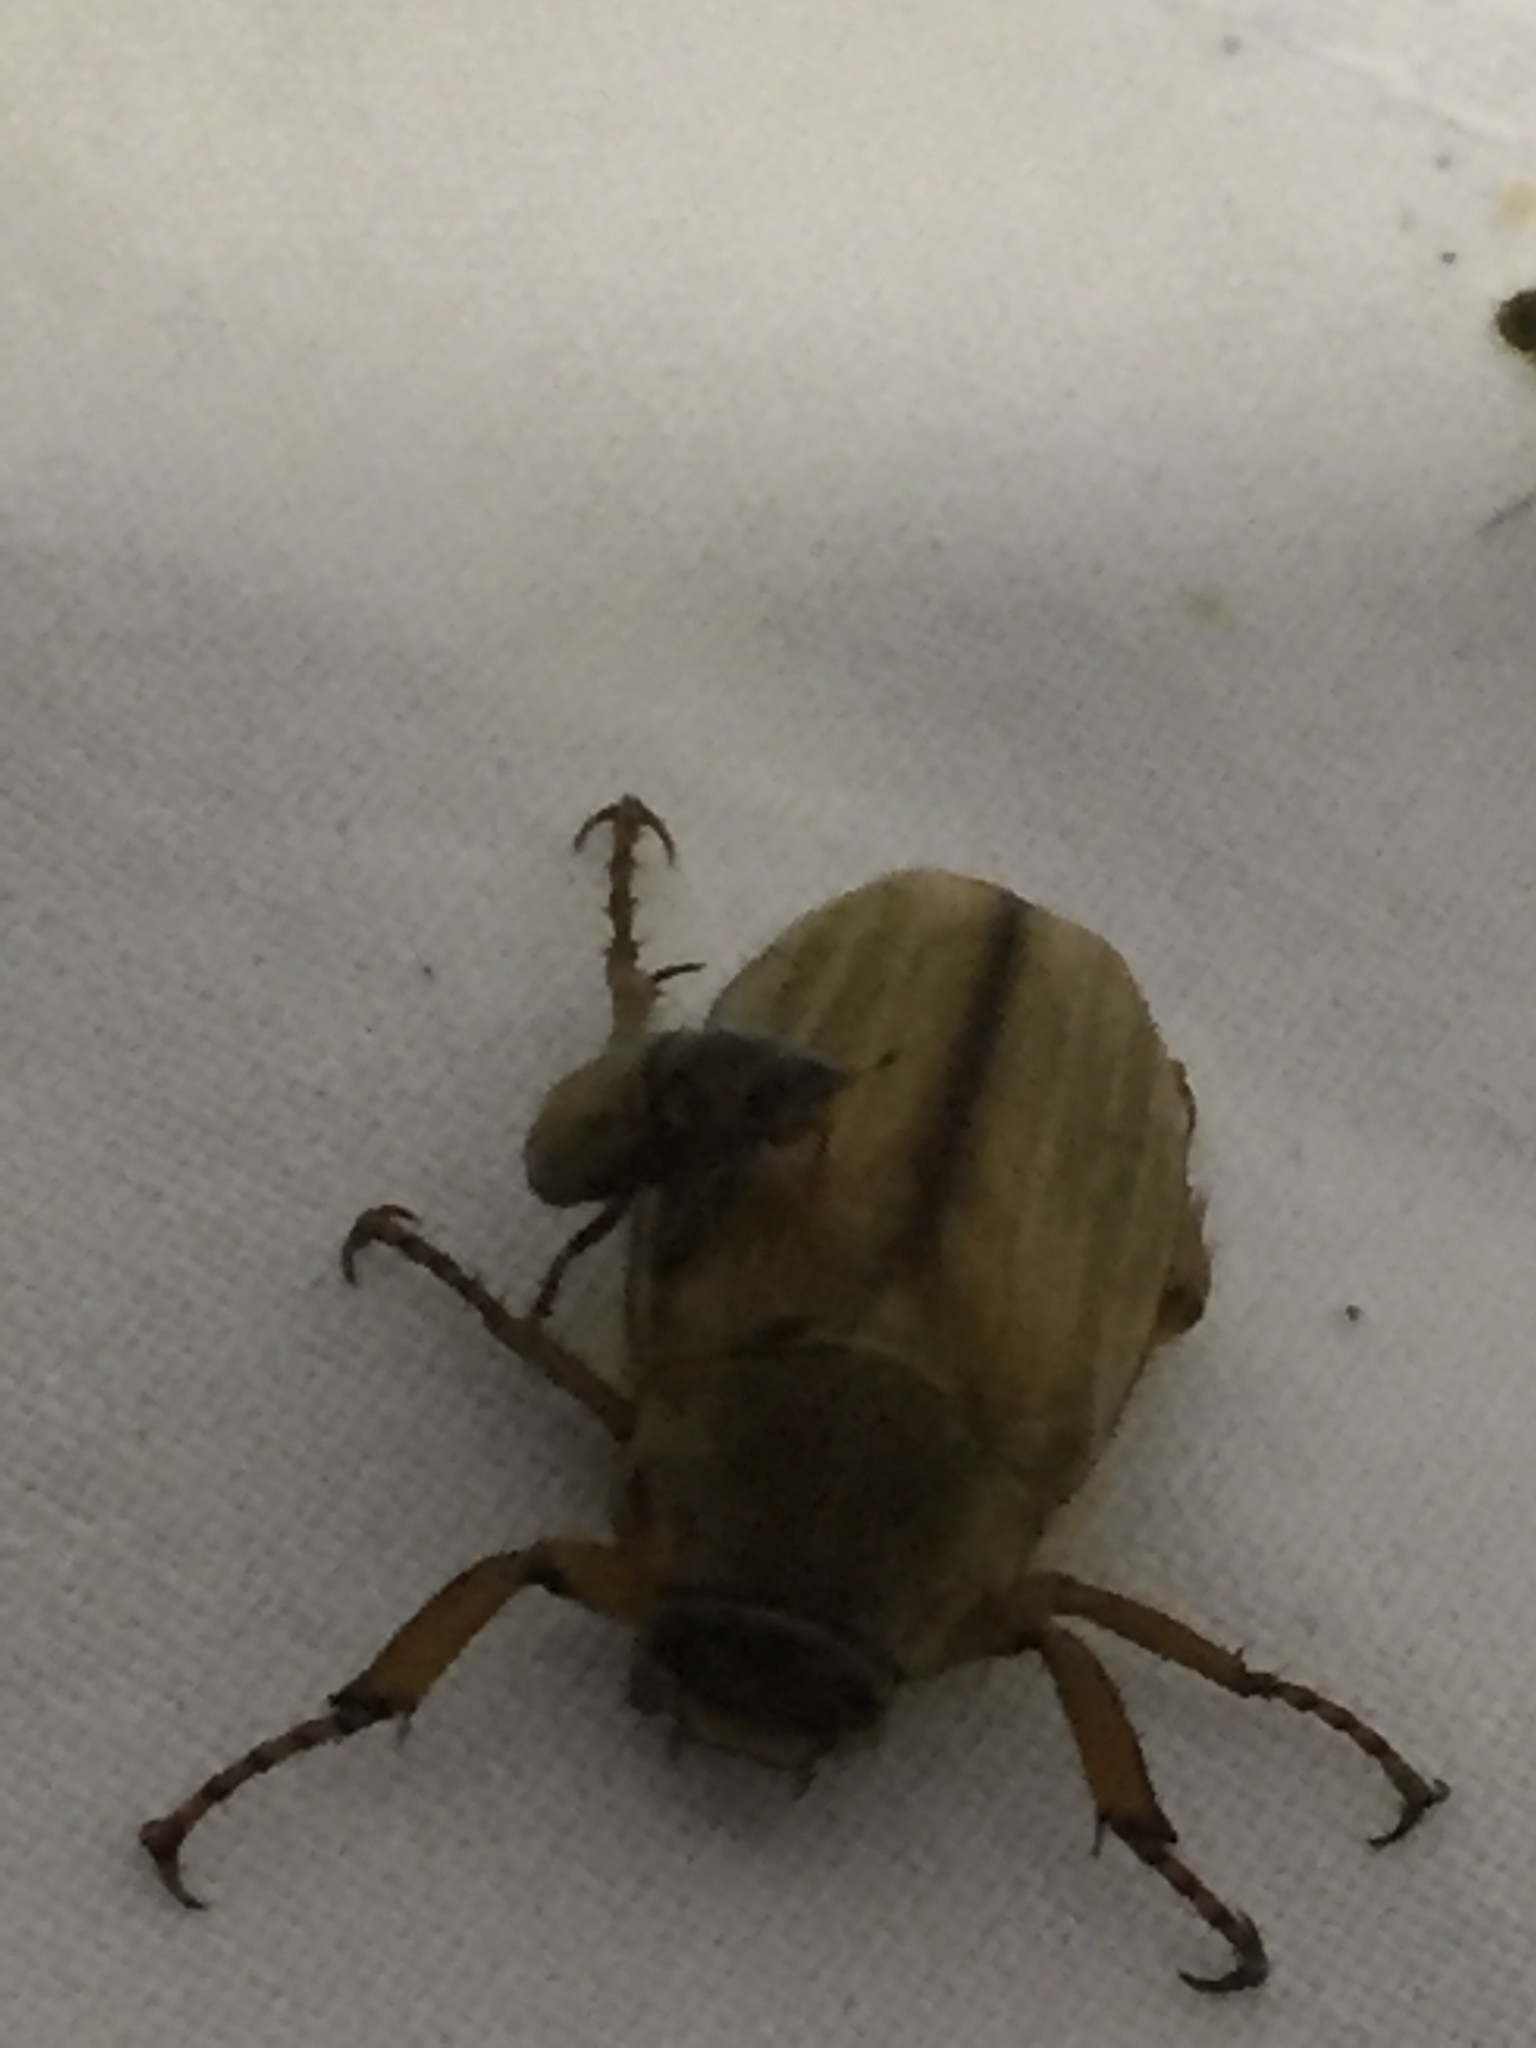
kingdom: Animalia
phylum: Arthropoda
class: Insecta
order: Coleoptera
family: Scarabaeidae
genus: Amphimallon
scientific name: Amphimallon solstitiale
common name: Summer chafer
